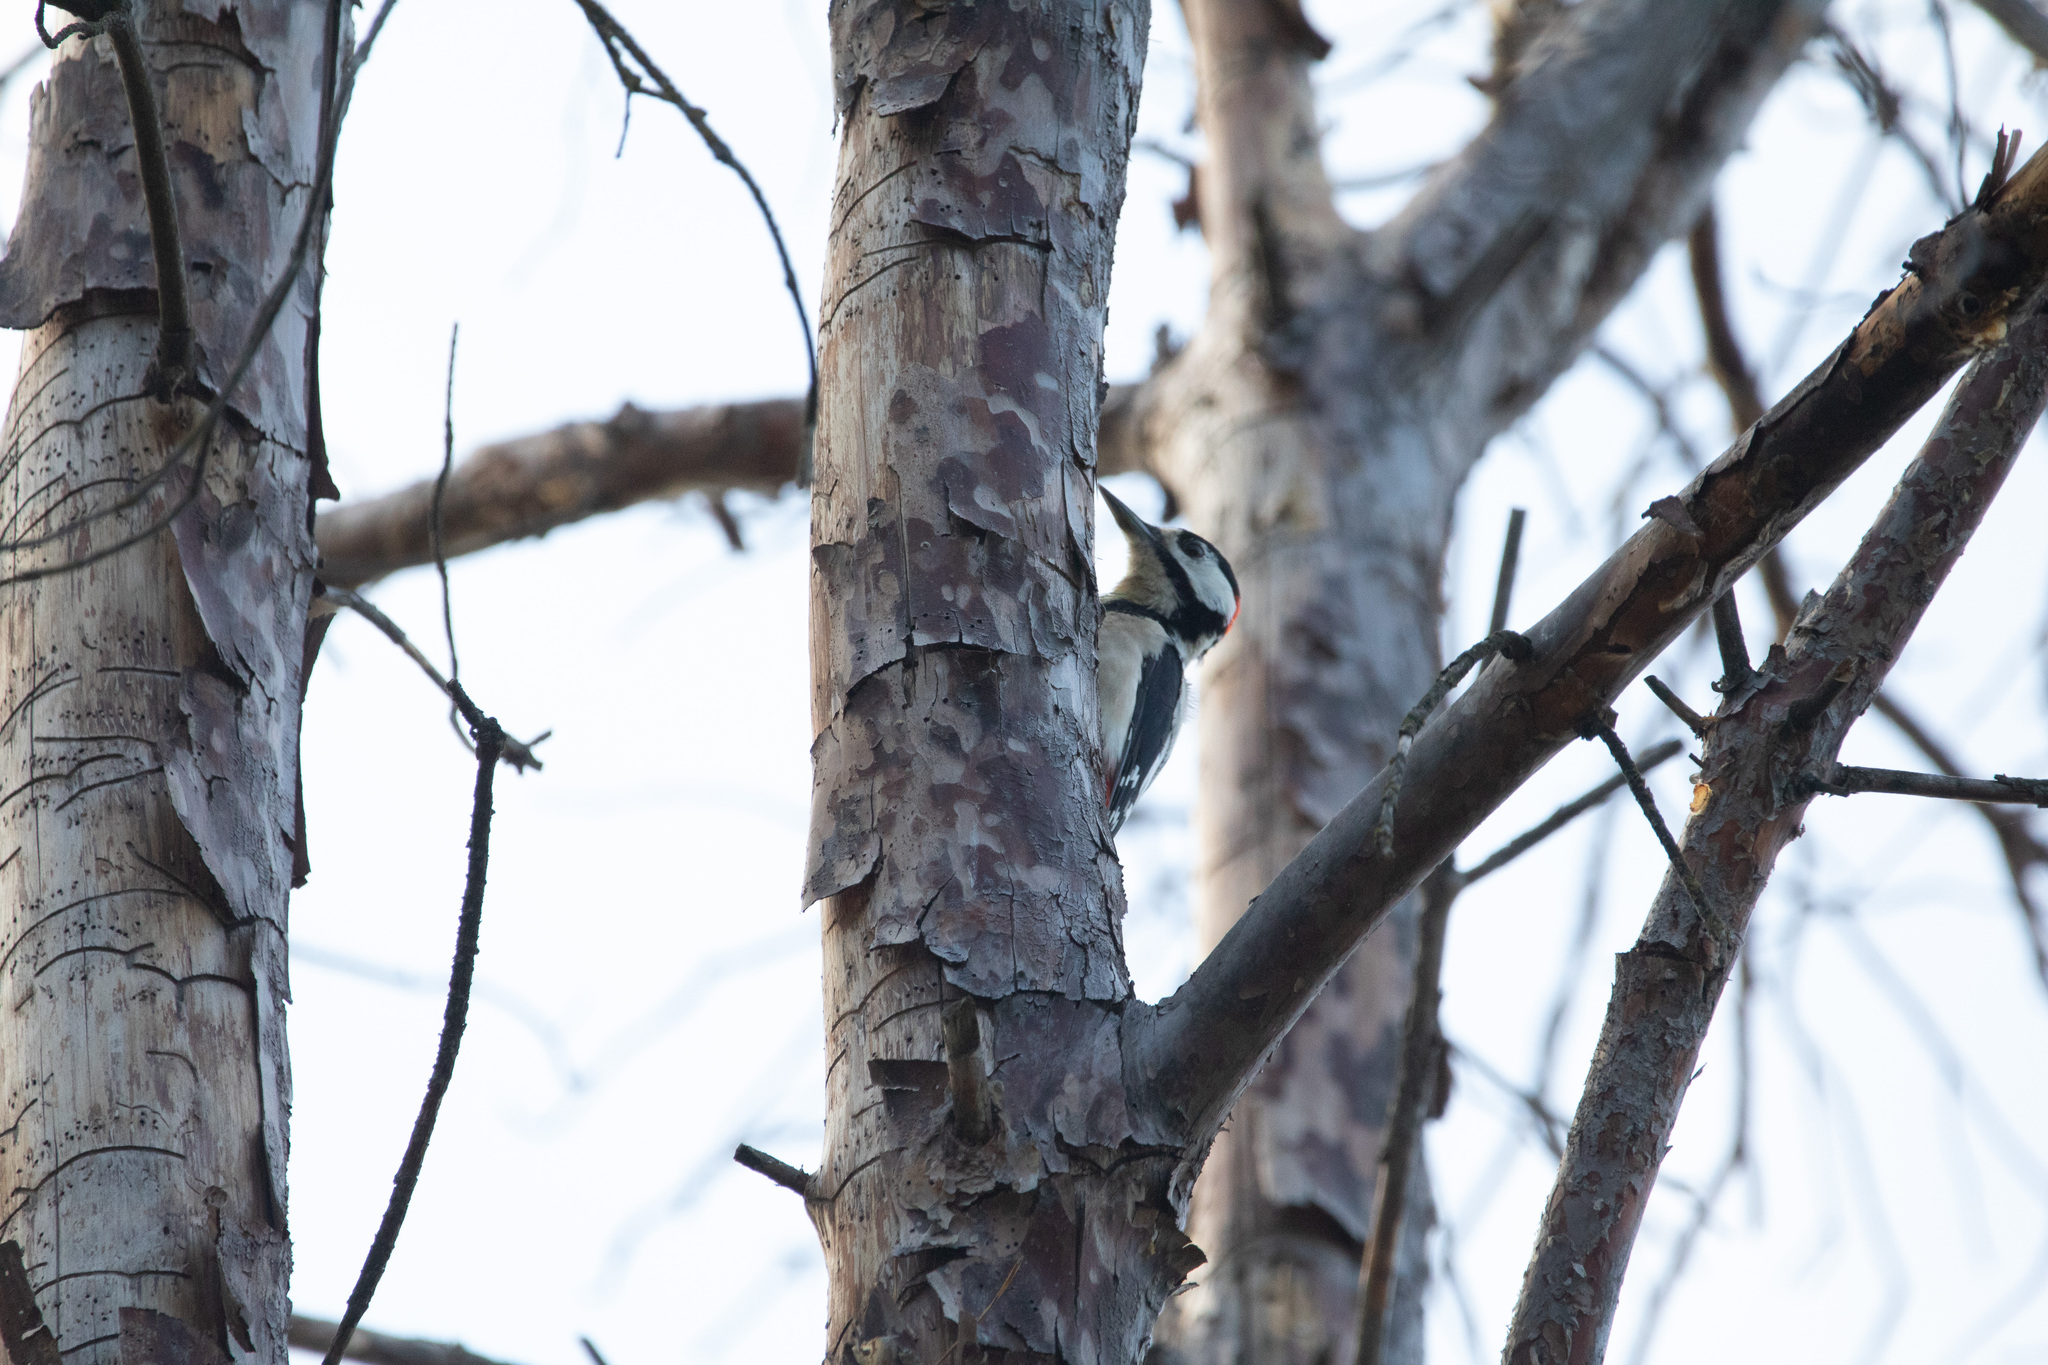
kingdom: Animalia
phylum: Chordata
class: Aves
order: Piciformes
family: Picidae
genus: Dendrocopos
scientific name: Dendrocopos major
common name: Great spotted woodpecker
